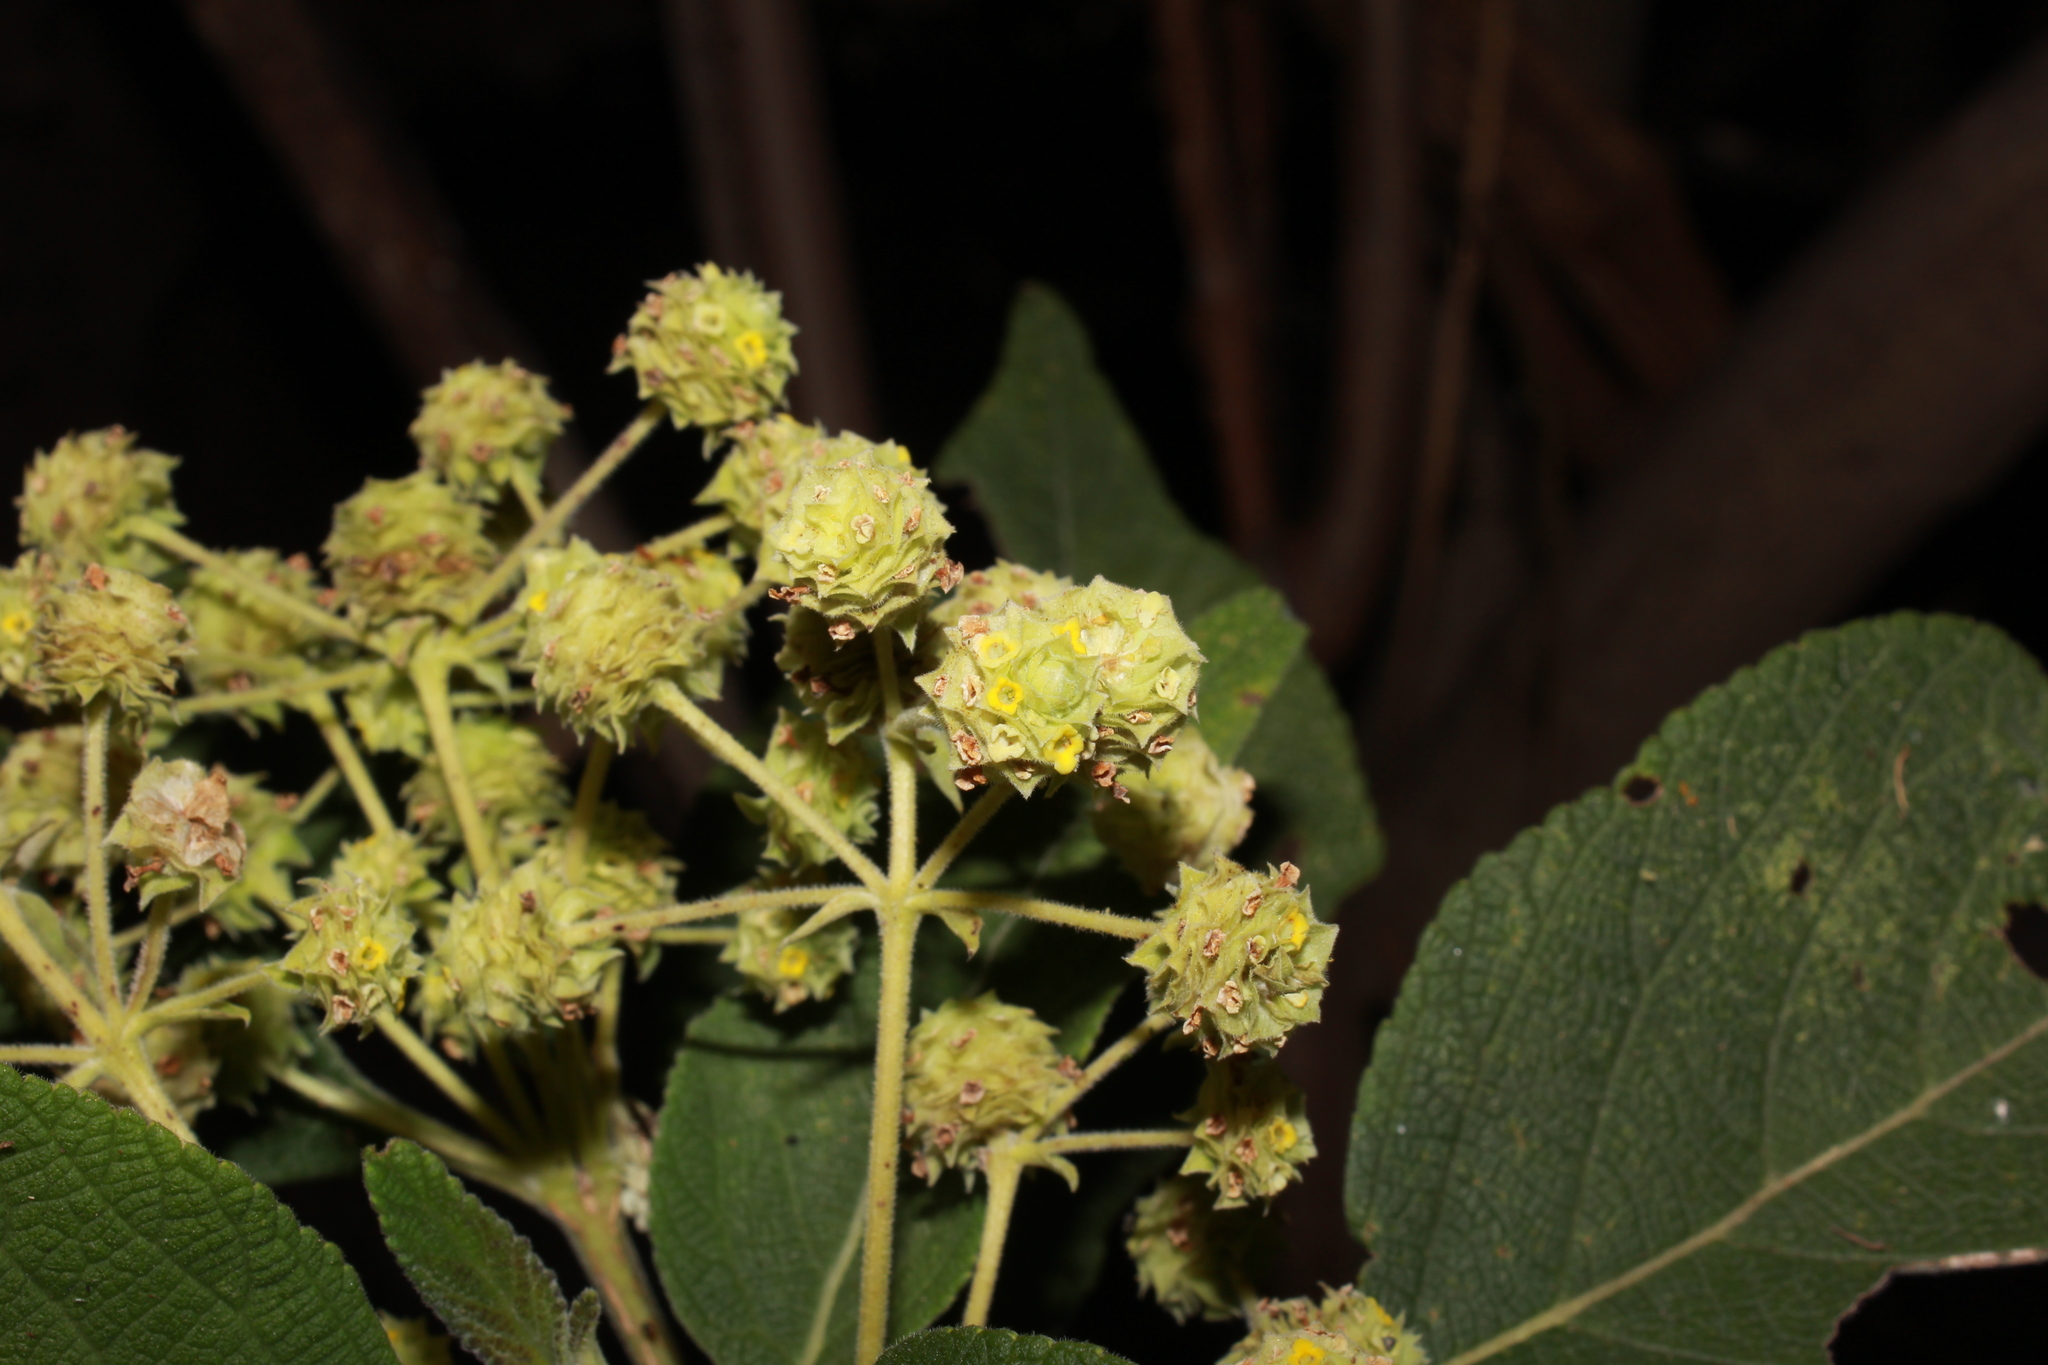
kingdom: Plantae
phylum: Tracheophyta
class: Magnoliopsida
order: Lamiales
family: Verbenaceae
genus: Lippia
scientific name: Lippia umbellata
